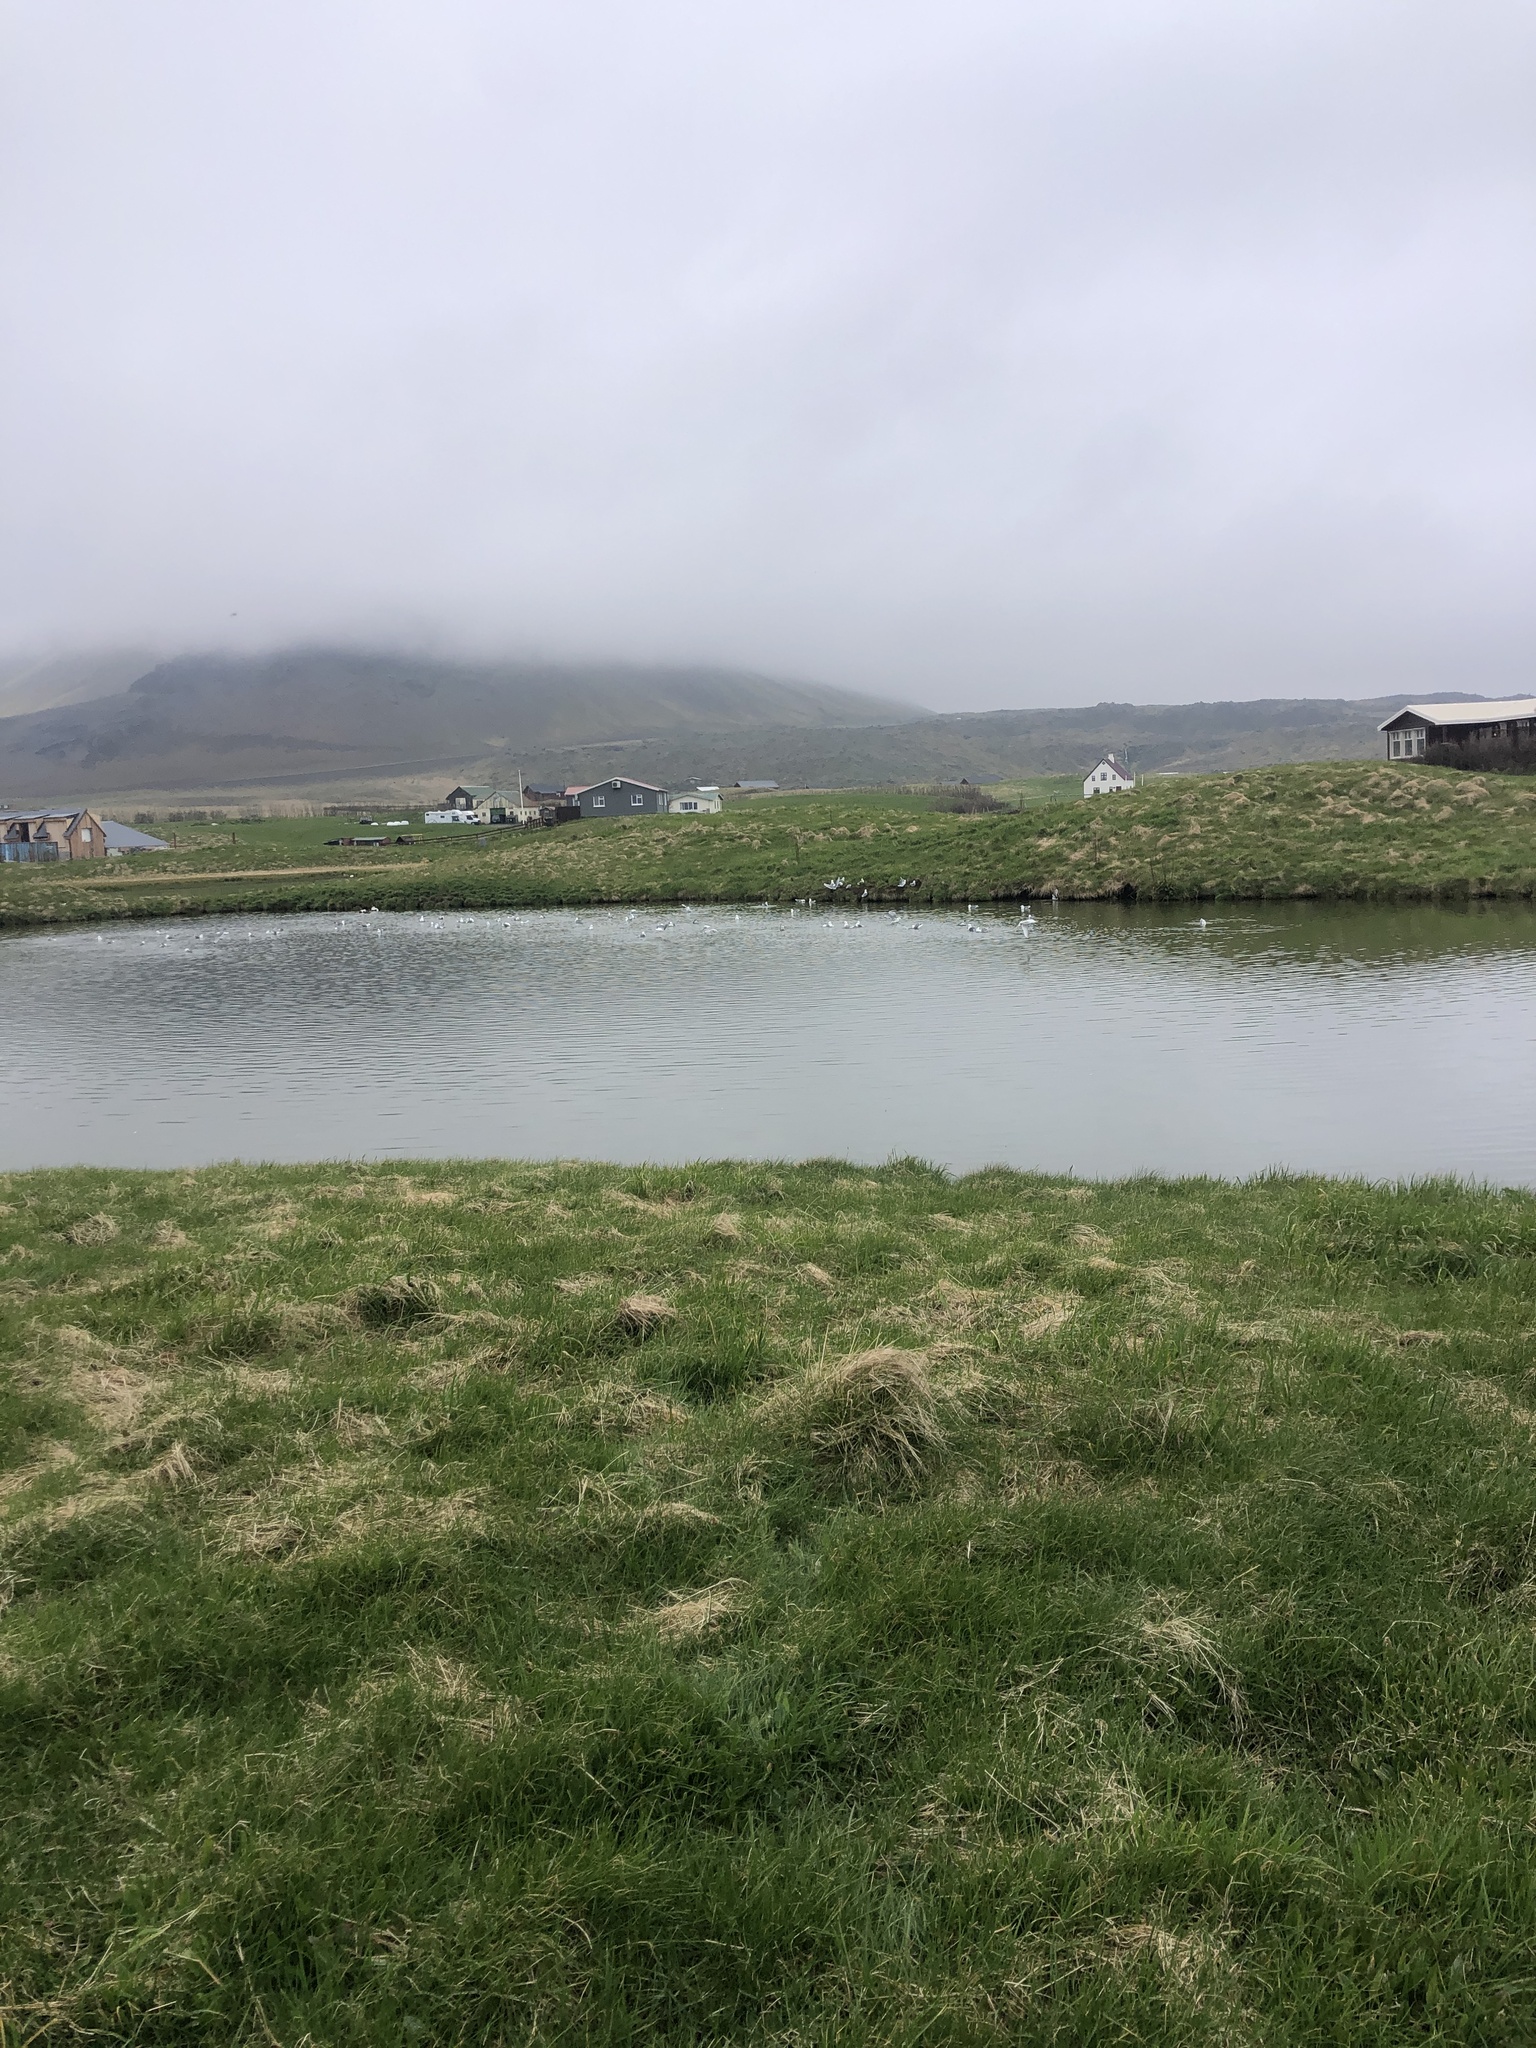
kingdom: Animalia
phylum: Chordata
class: Aves
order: Charadriiformes
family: Laridae
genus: Rissa
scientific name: Rissa tridactyla
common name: Black-legged kittiwake
